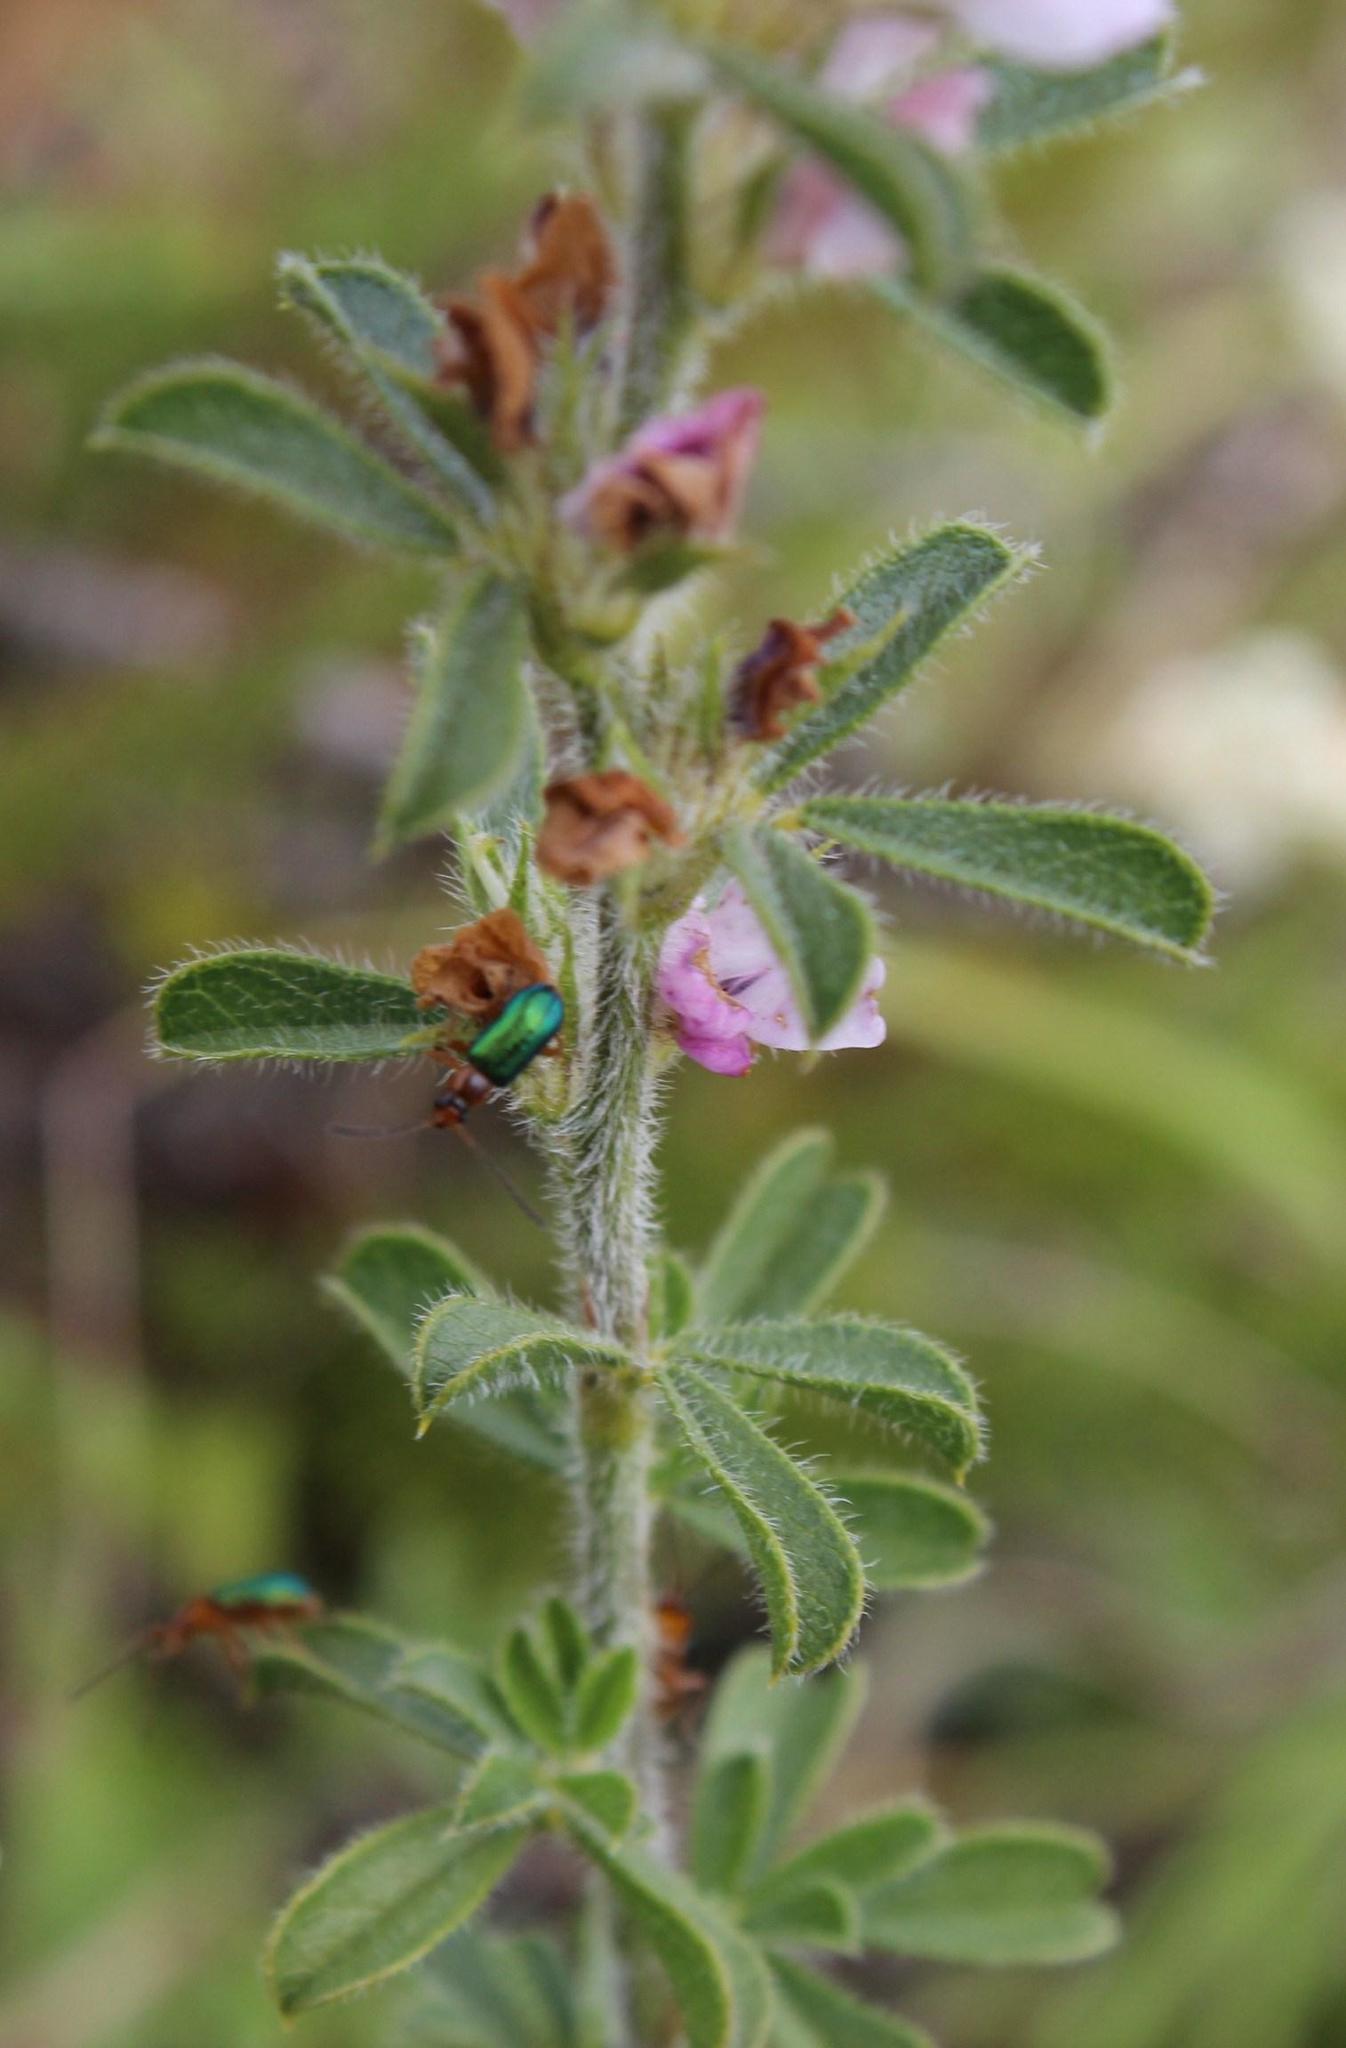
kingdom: Plantae
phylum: Tracheophyta
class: Magnoliopsida
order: Fabales
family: Fabaceae
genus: Psoralea
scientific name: Psoralea bolusii
